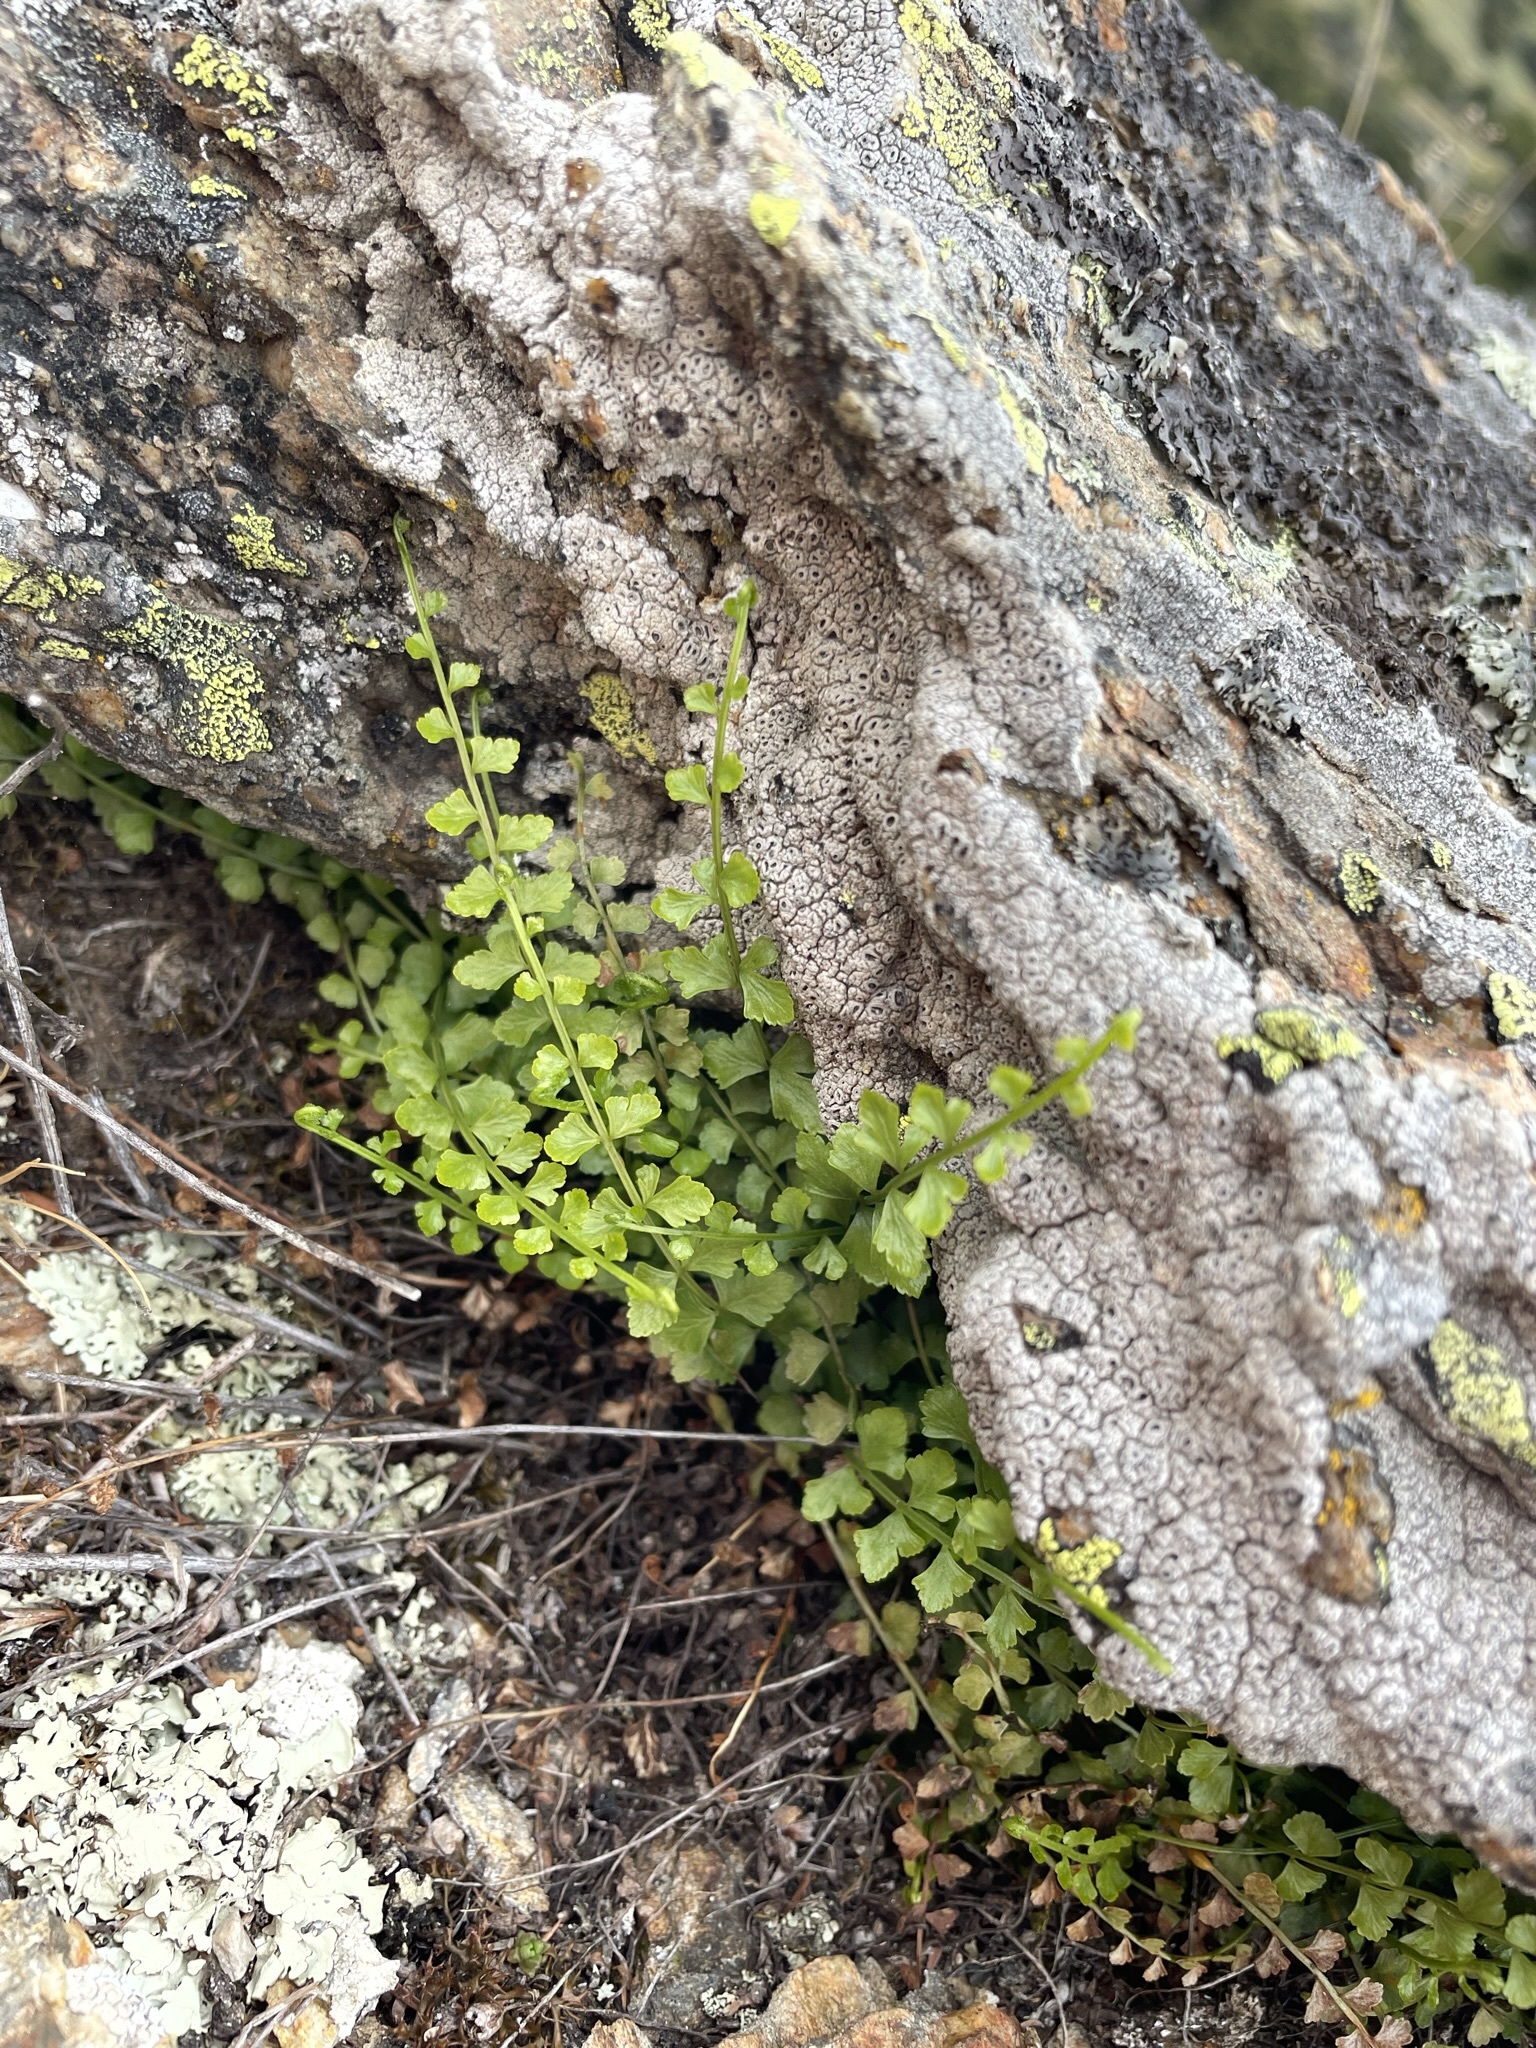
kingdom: Plantae
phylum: Tracheophyta
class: Polypodiopsida
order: Polypodiales
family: Aspleniaceae
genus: Asplenium
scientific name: Asplenium flabellifolium
